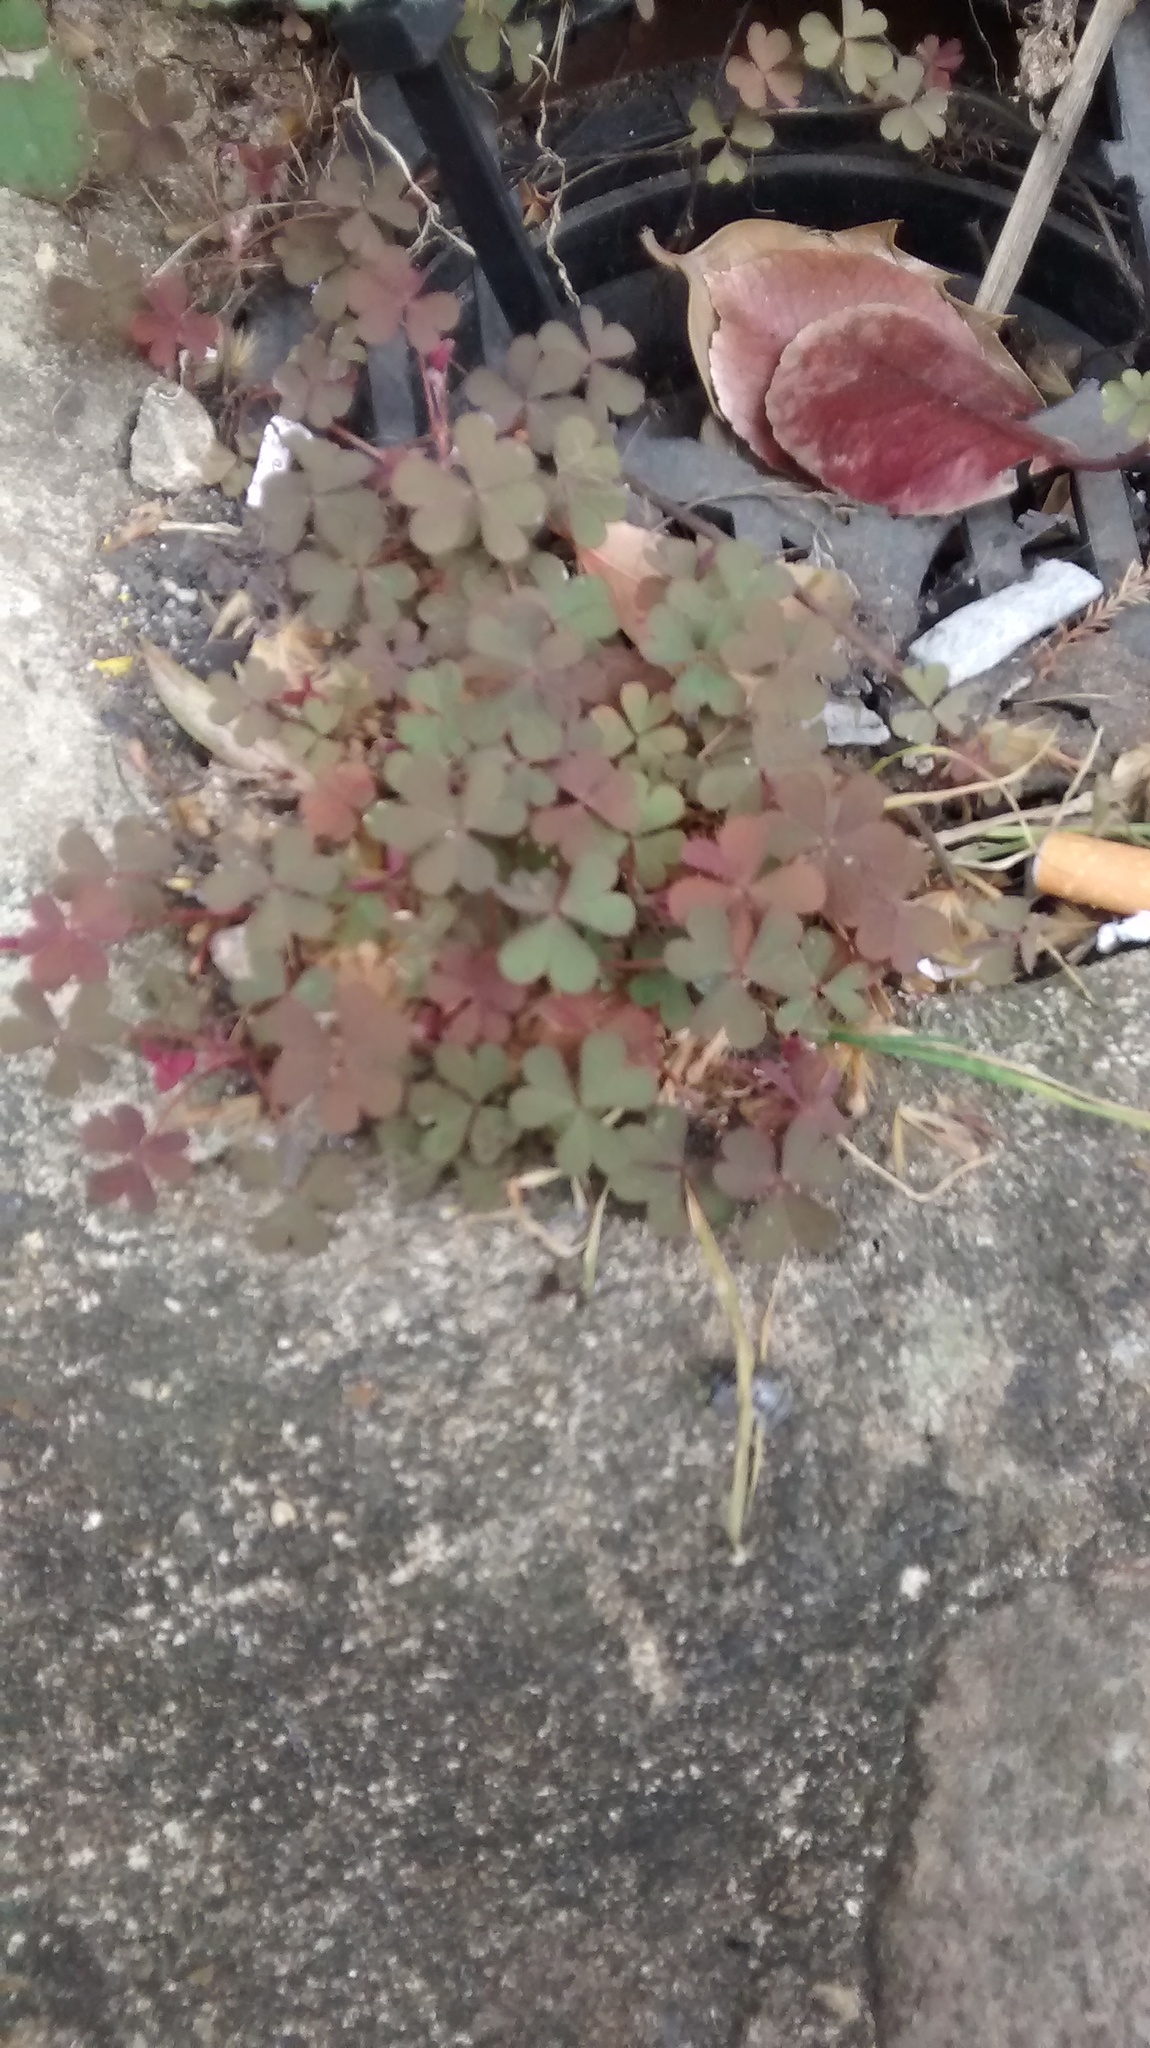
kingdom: Plantae
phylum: Tracheophyta
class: Magnoliopsida
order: Oxalidales
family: Oxalidaceae
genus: Oxalis
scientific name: Oxalis corniculata
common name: Procumbent yellow-sorrel
